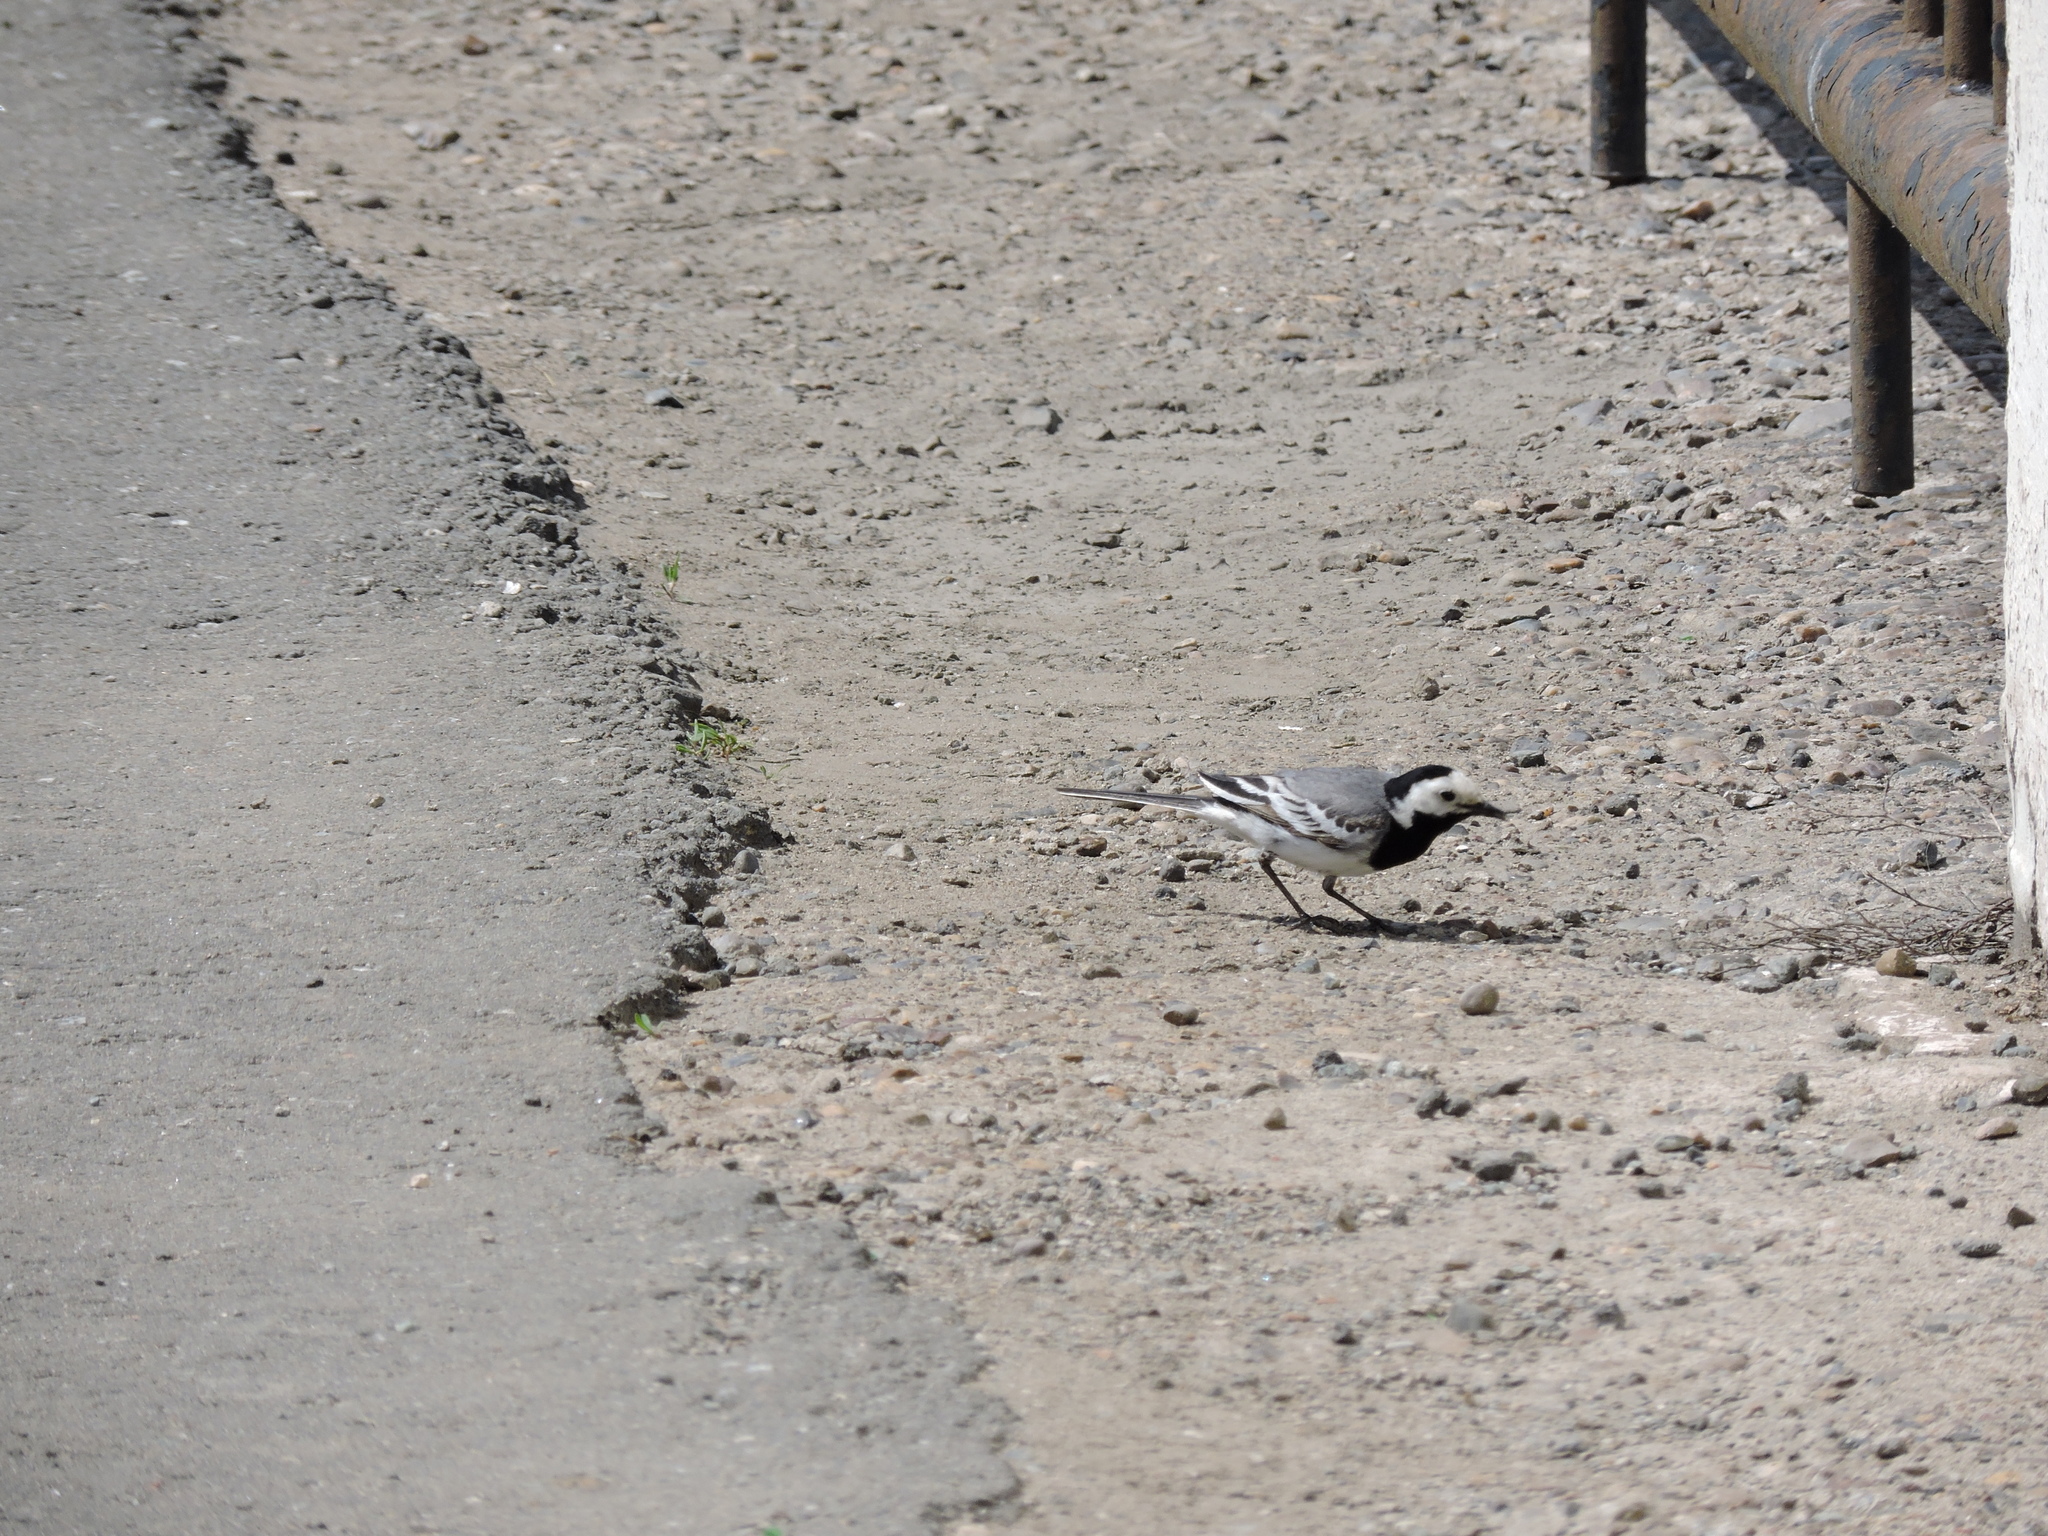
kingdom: Animalia
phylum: Chordata
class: Aves
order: Passeriformes
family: Motacillidae
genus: Motacilla
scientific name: Motacilla alba
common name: White wagtail
